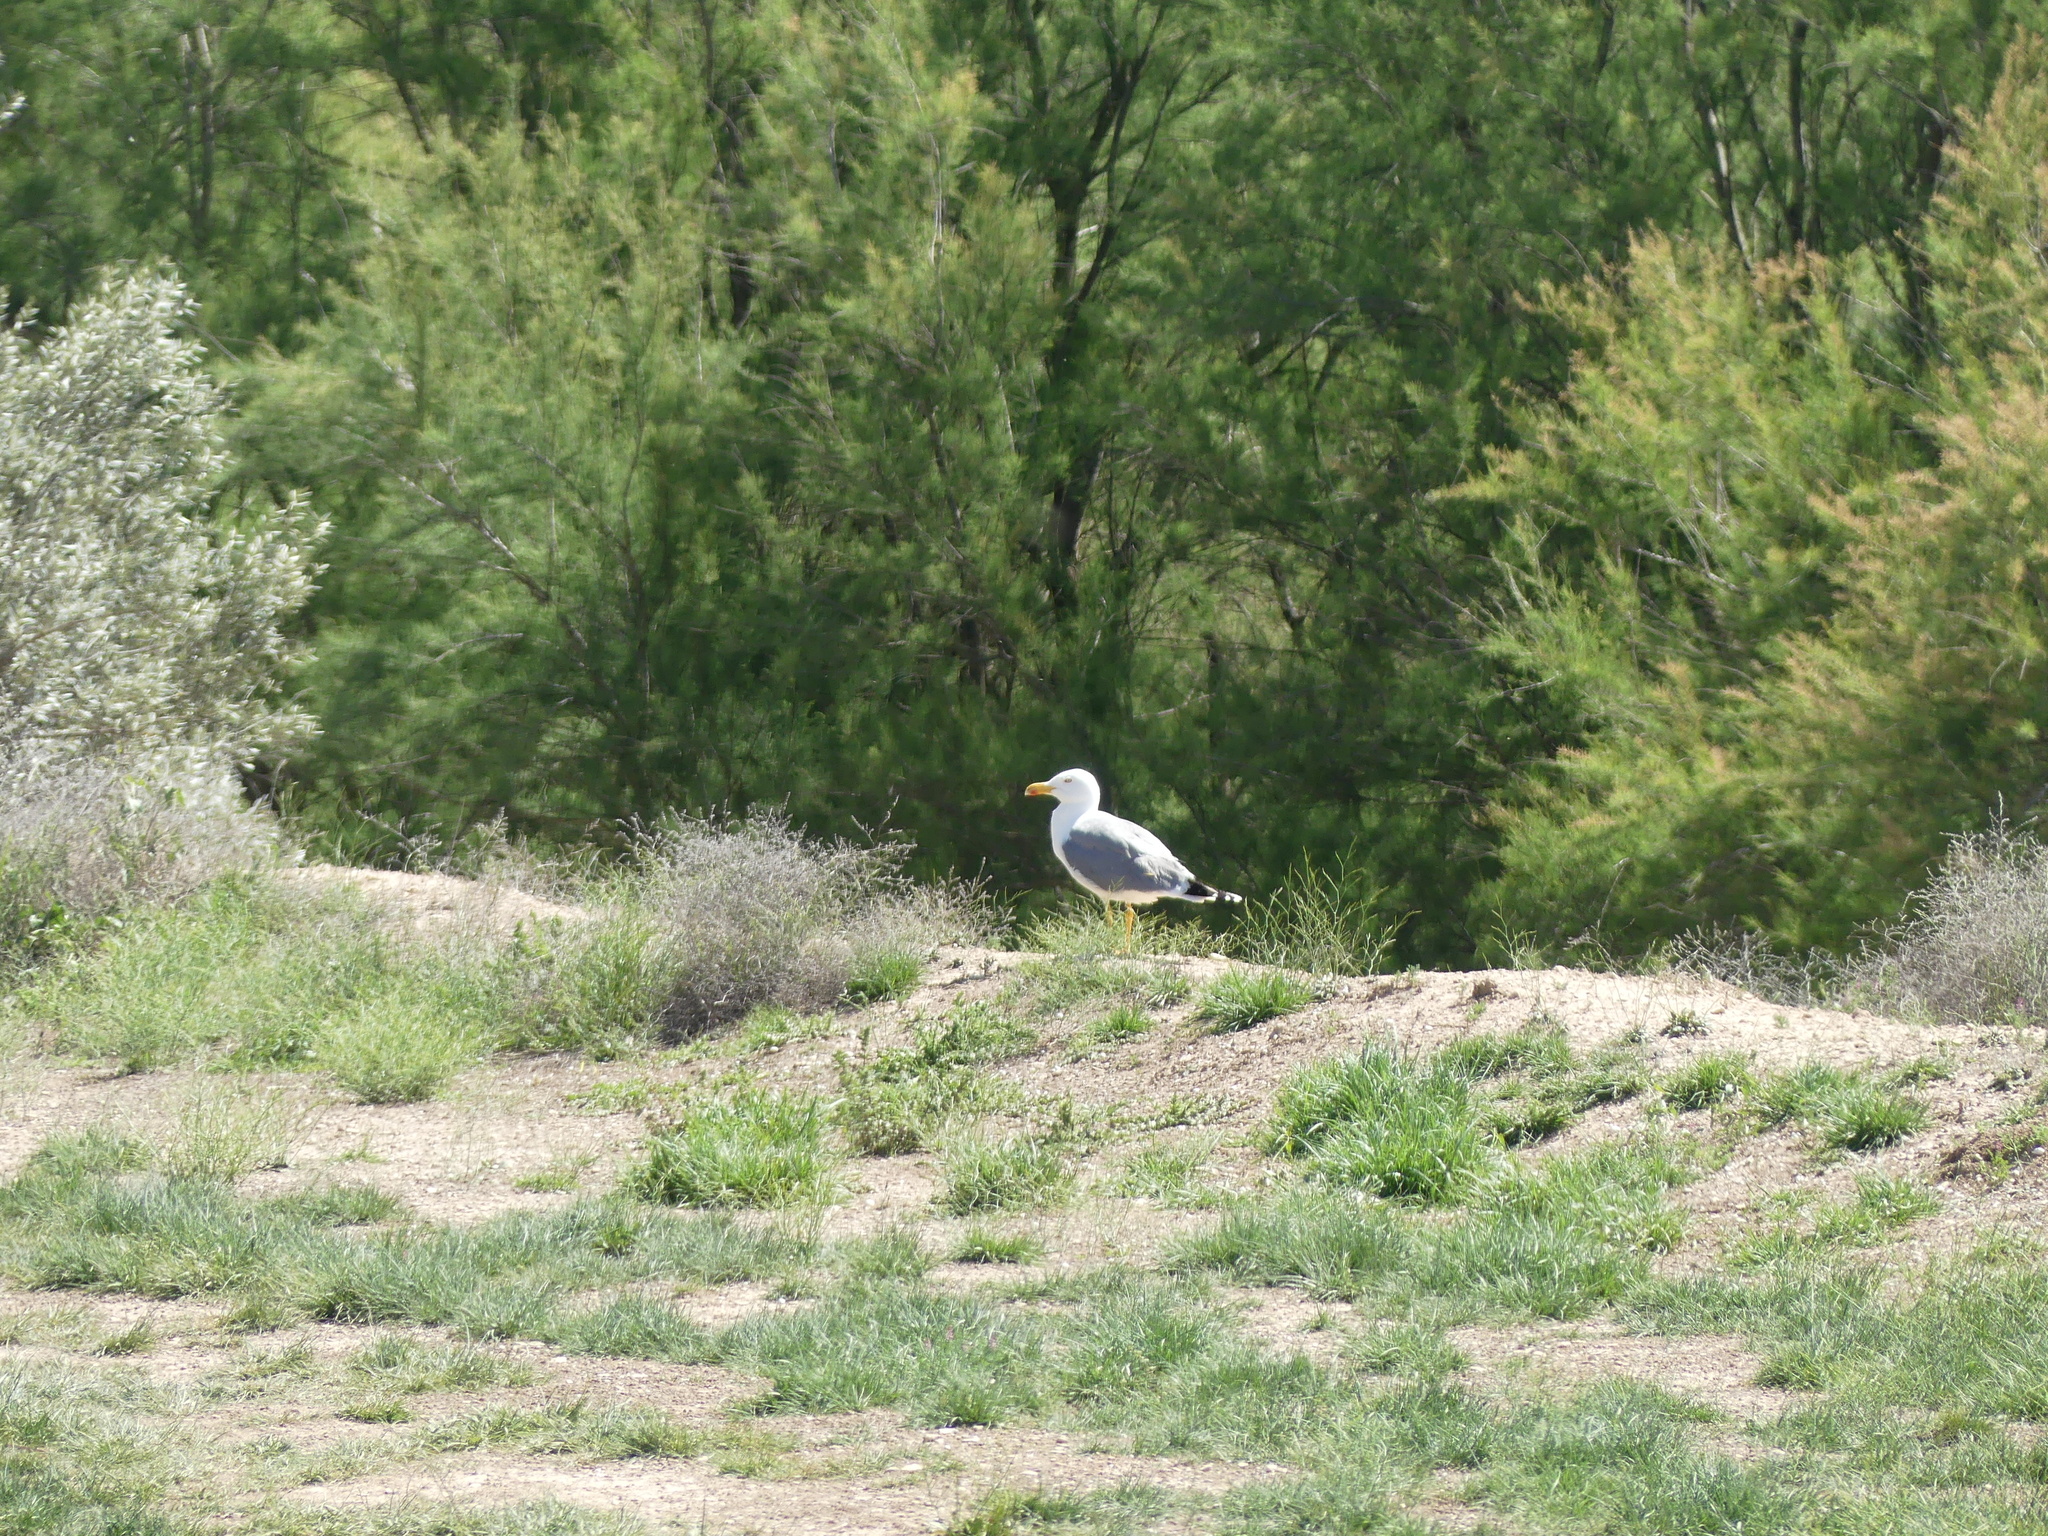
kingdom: Animalia
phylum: Chordata
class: Aves
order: Charadriiformes
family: Laridae
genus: Larus
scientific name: Larus michahellis
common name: Yellow-legged gull
